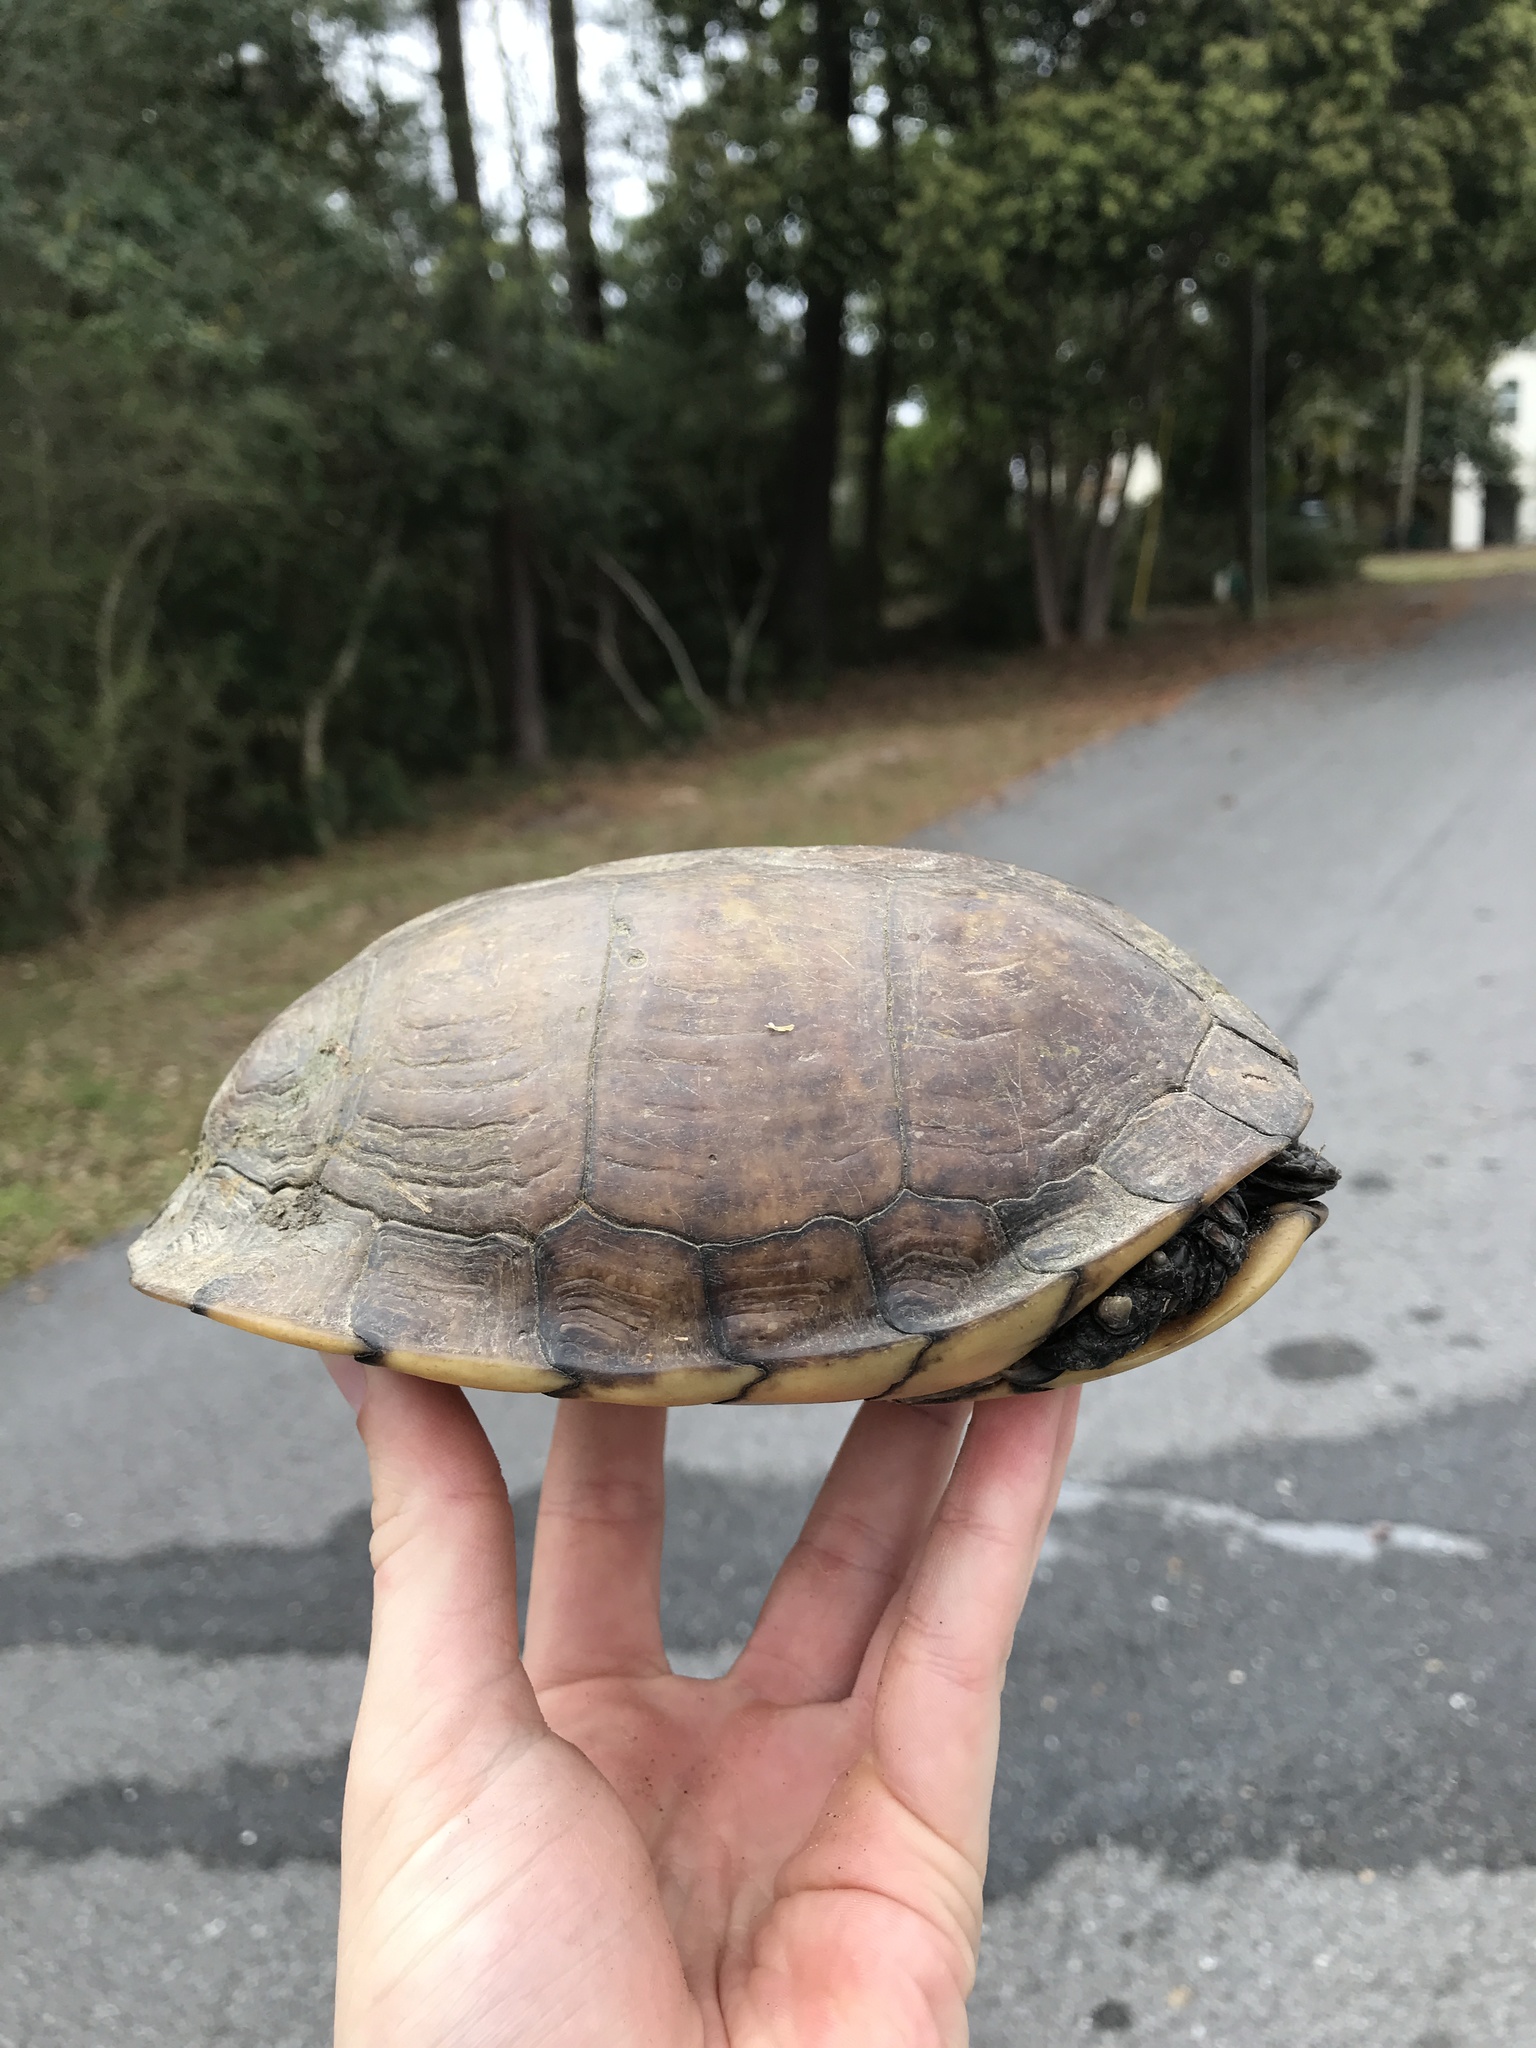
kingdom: Animalia
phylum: Chordata
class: Testudines
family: Emydidae
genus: Terrapene
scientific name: Terrapene carolina
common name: Common box turtle
